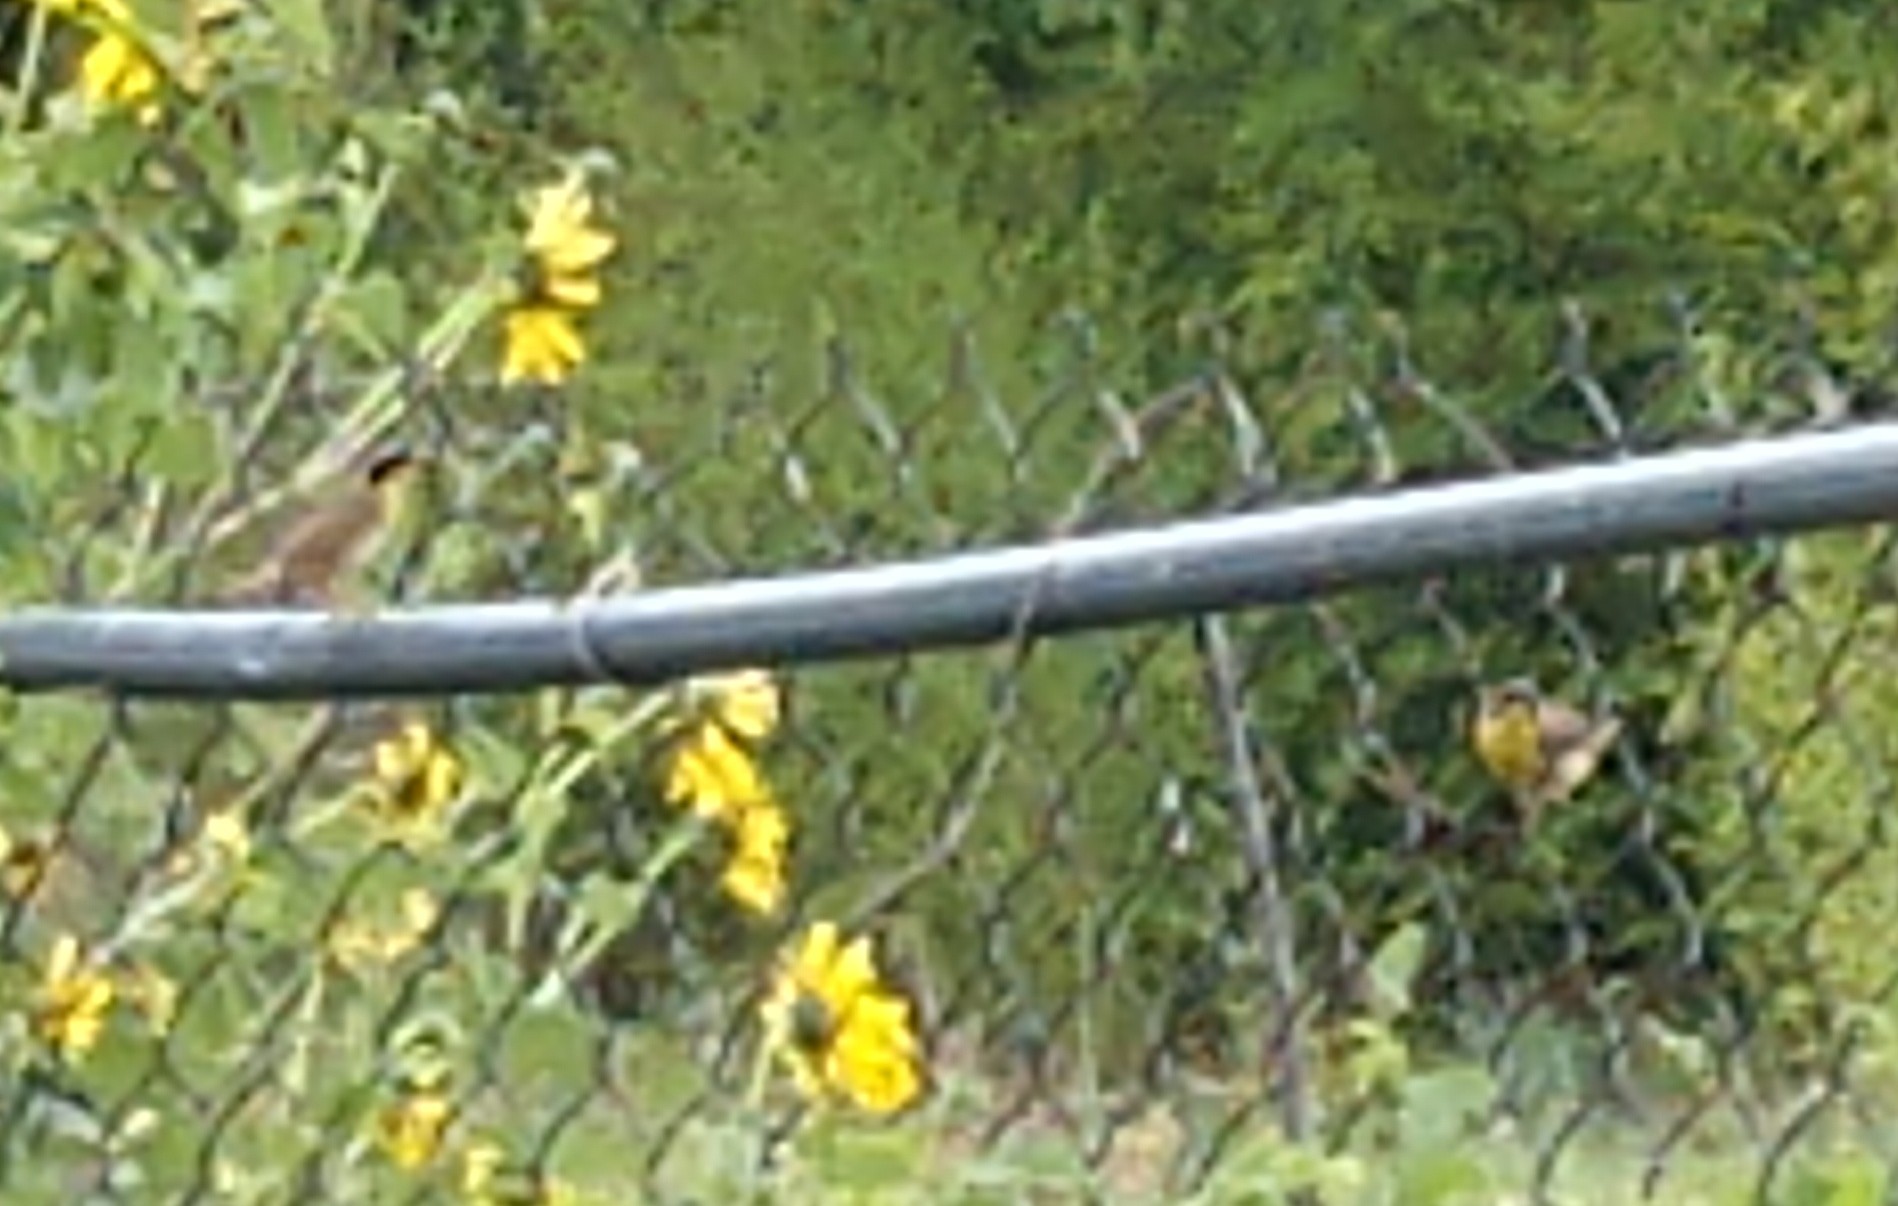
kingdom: Animalia
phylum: Chordata
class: Aves
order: Passeriformes
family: Parulidae
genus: Geothlypis
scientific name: Geothlypis trichas
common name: Common yellowthroat
